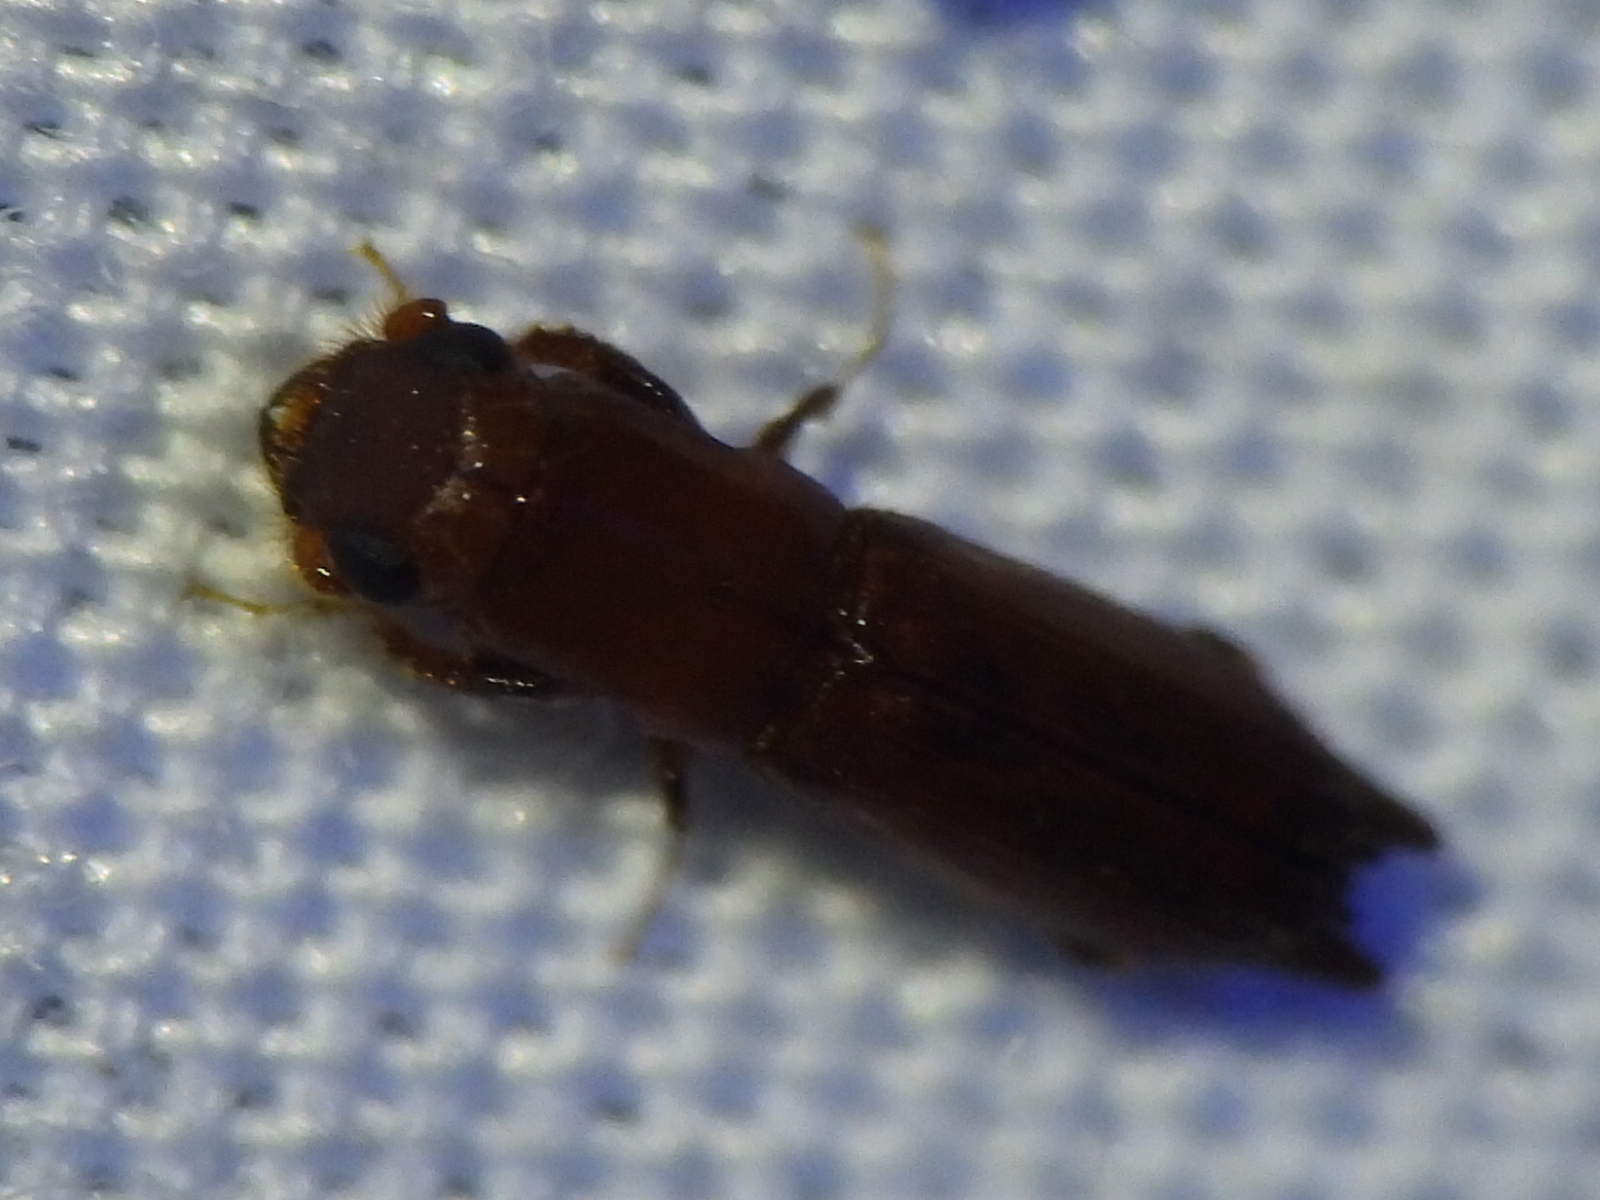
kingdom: Animalia
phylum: Arthropoda
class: Insecta
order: Coleoptera
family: Curculionidae
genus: Euplatypus
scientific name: Euplatypus compositus
